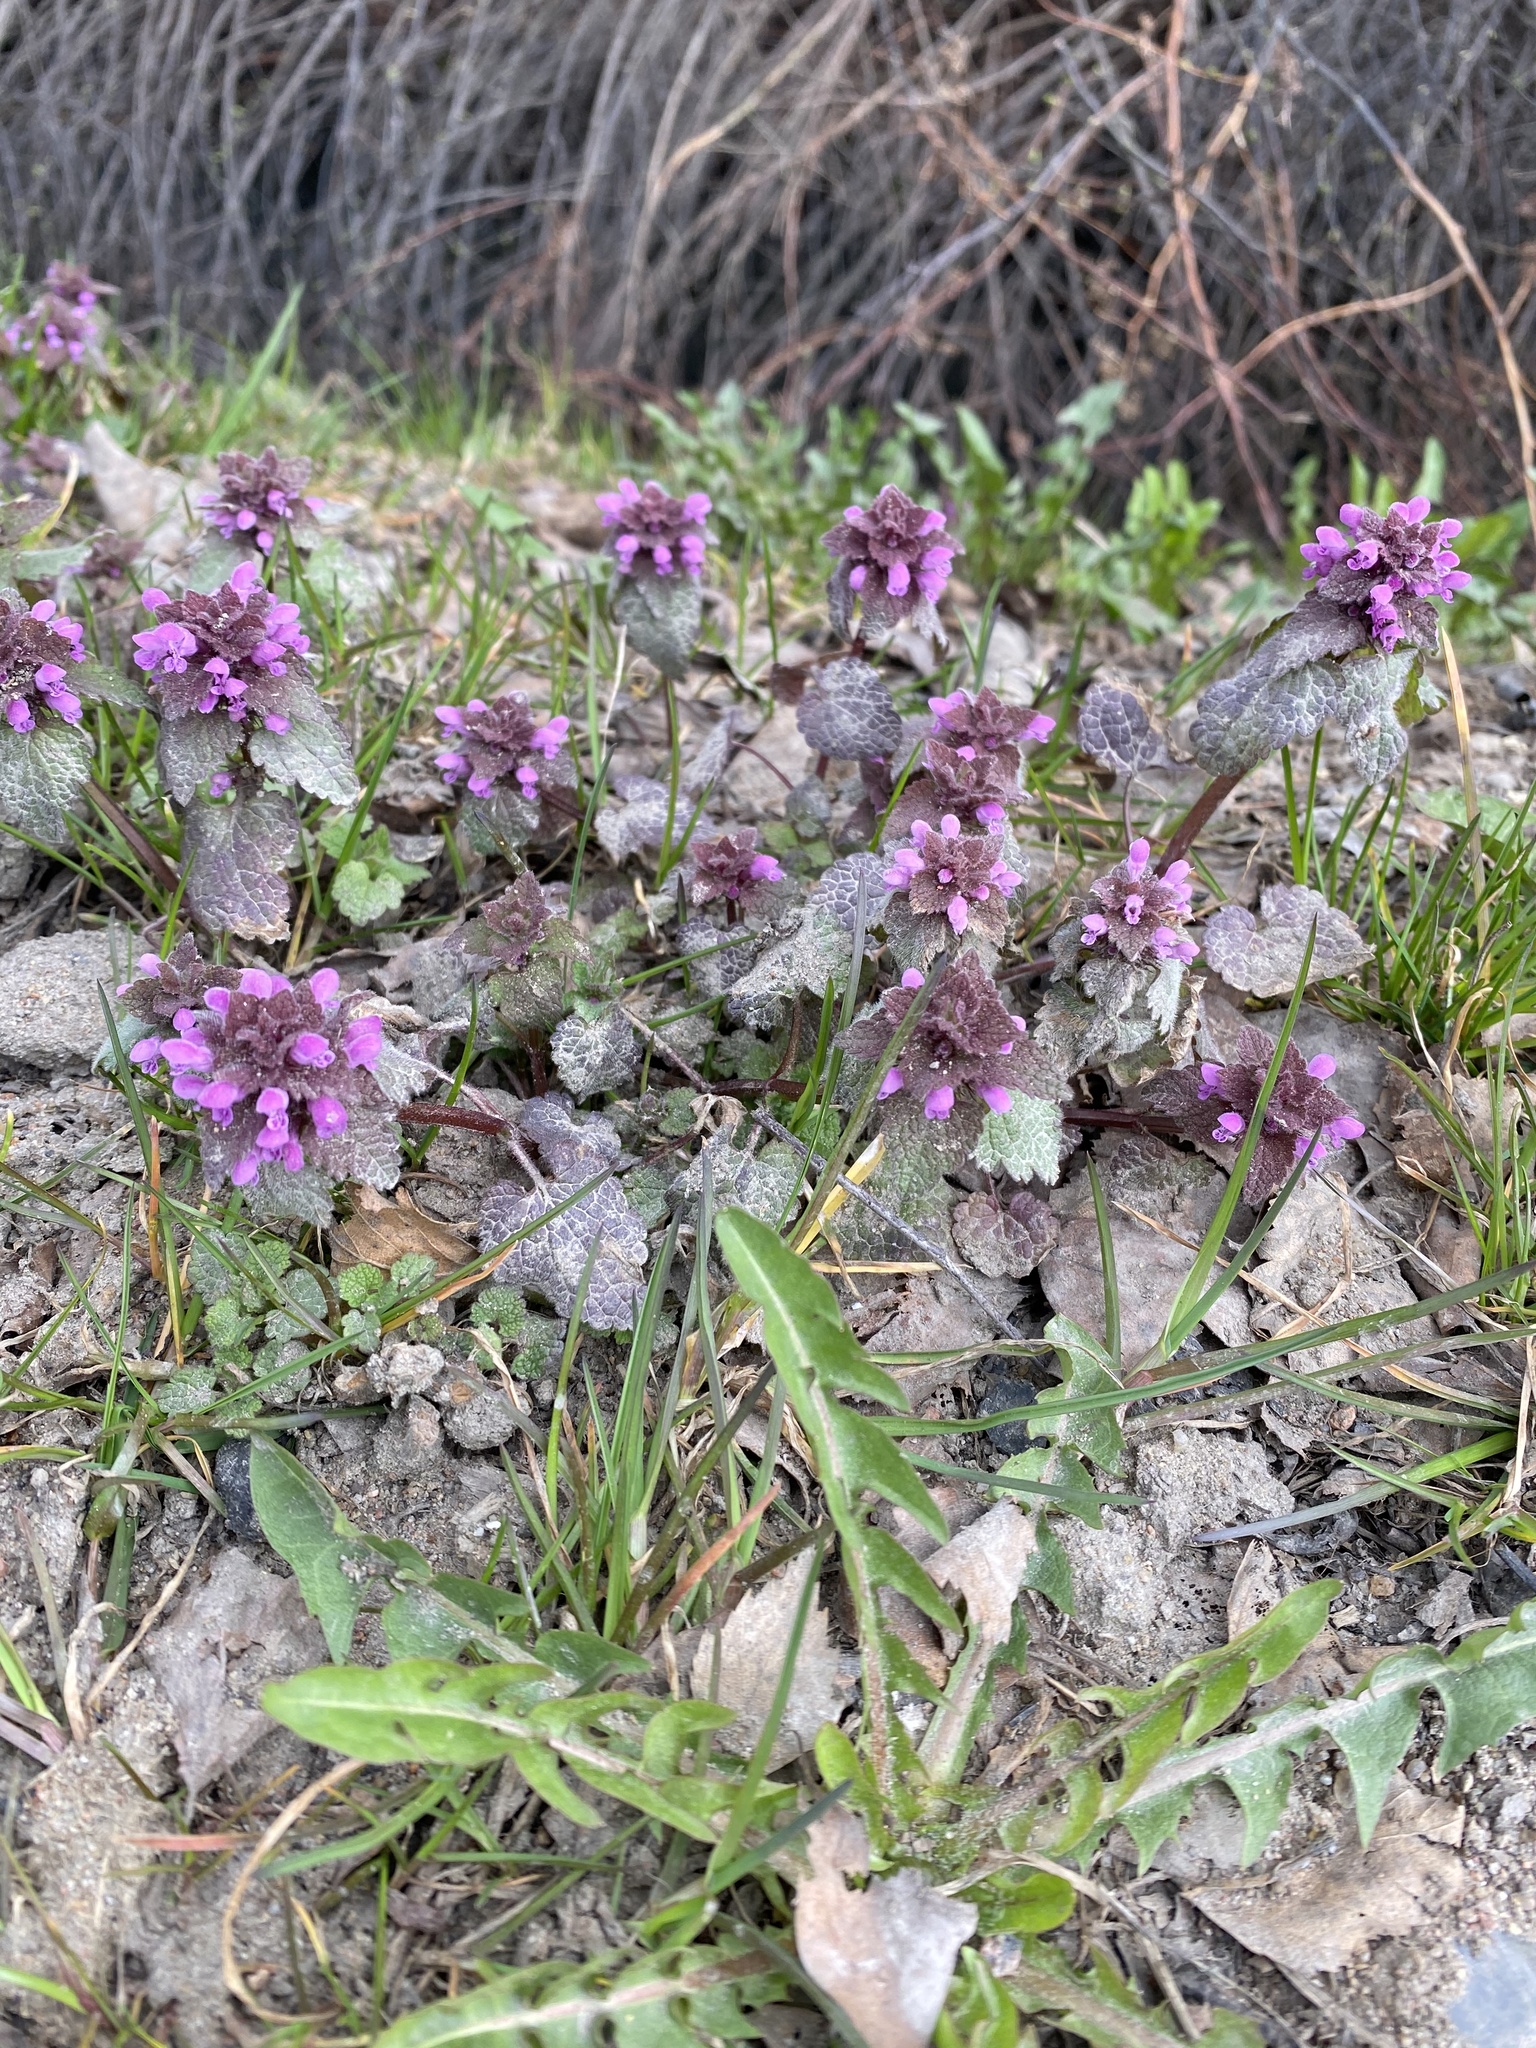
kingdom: Plantae
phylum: Tracheophyta
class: Magnoliopsida
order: Lamiales
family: Lamiaceae
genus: Lamium
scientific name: Lamium purpureum
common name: Red dead-nettle
